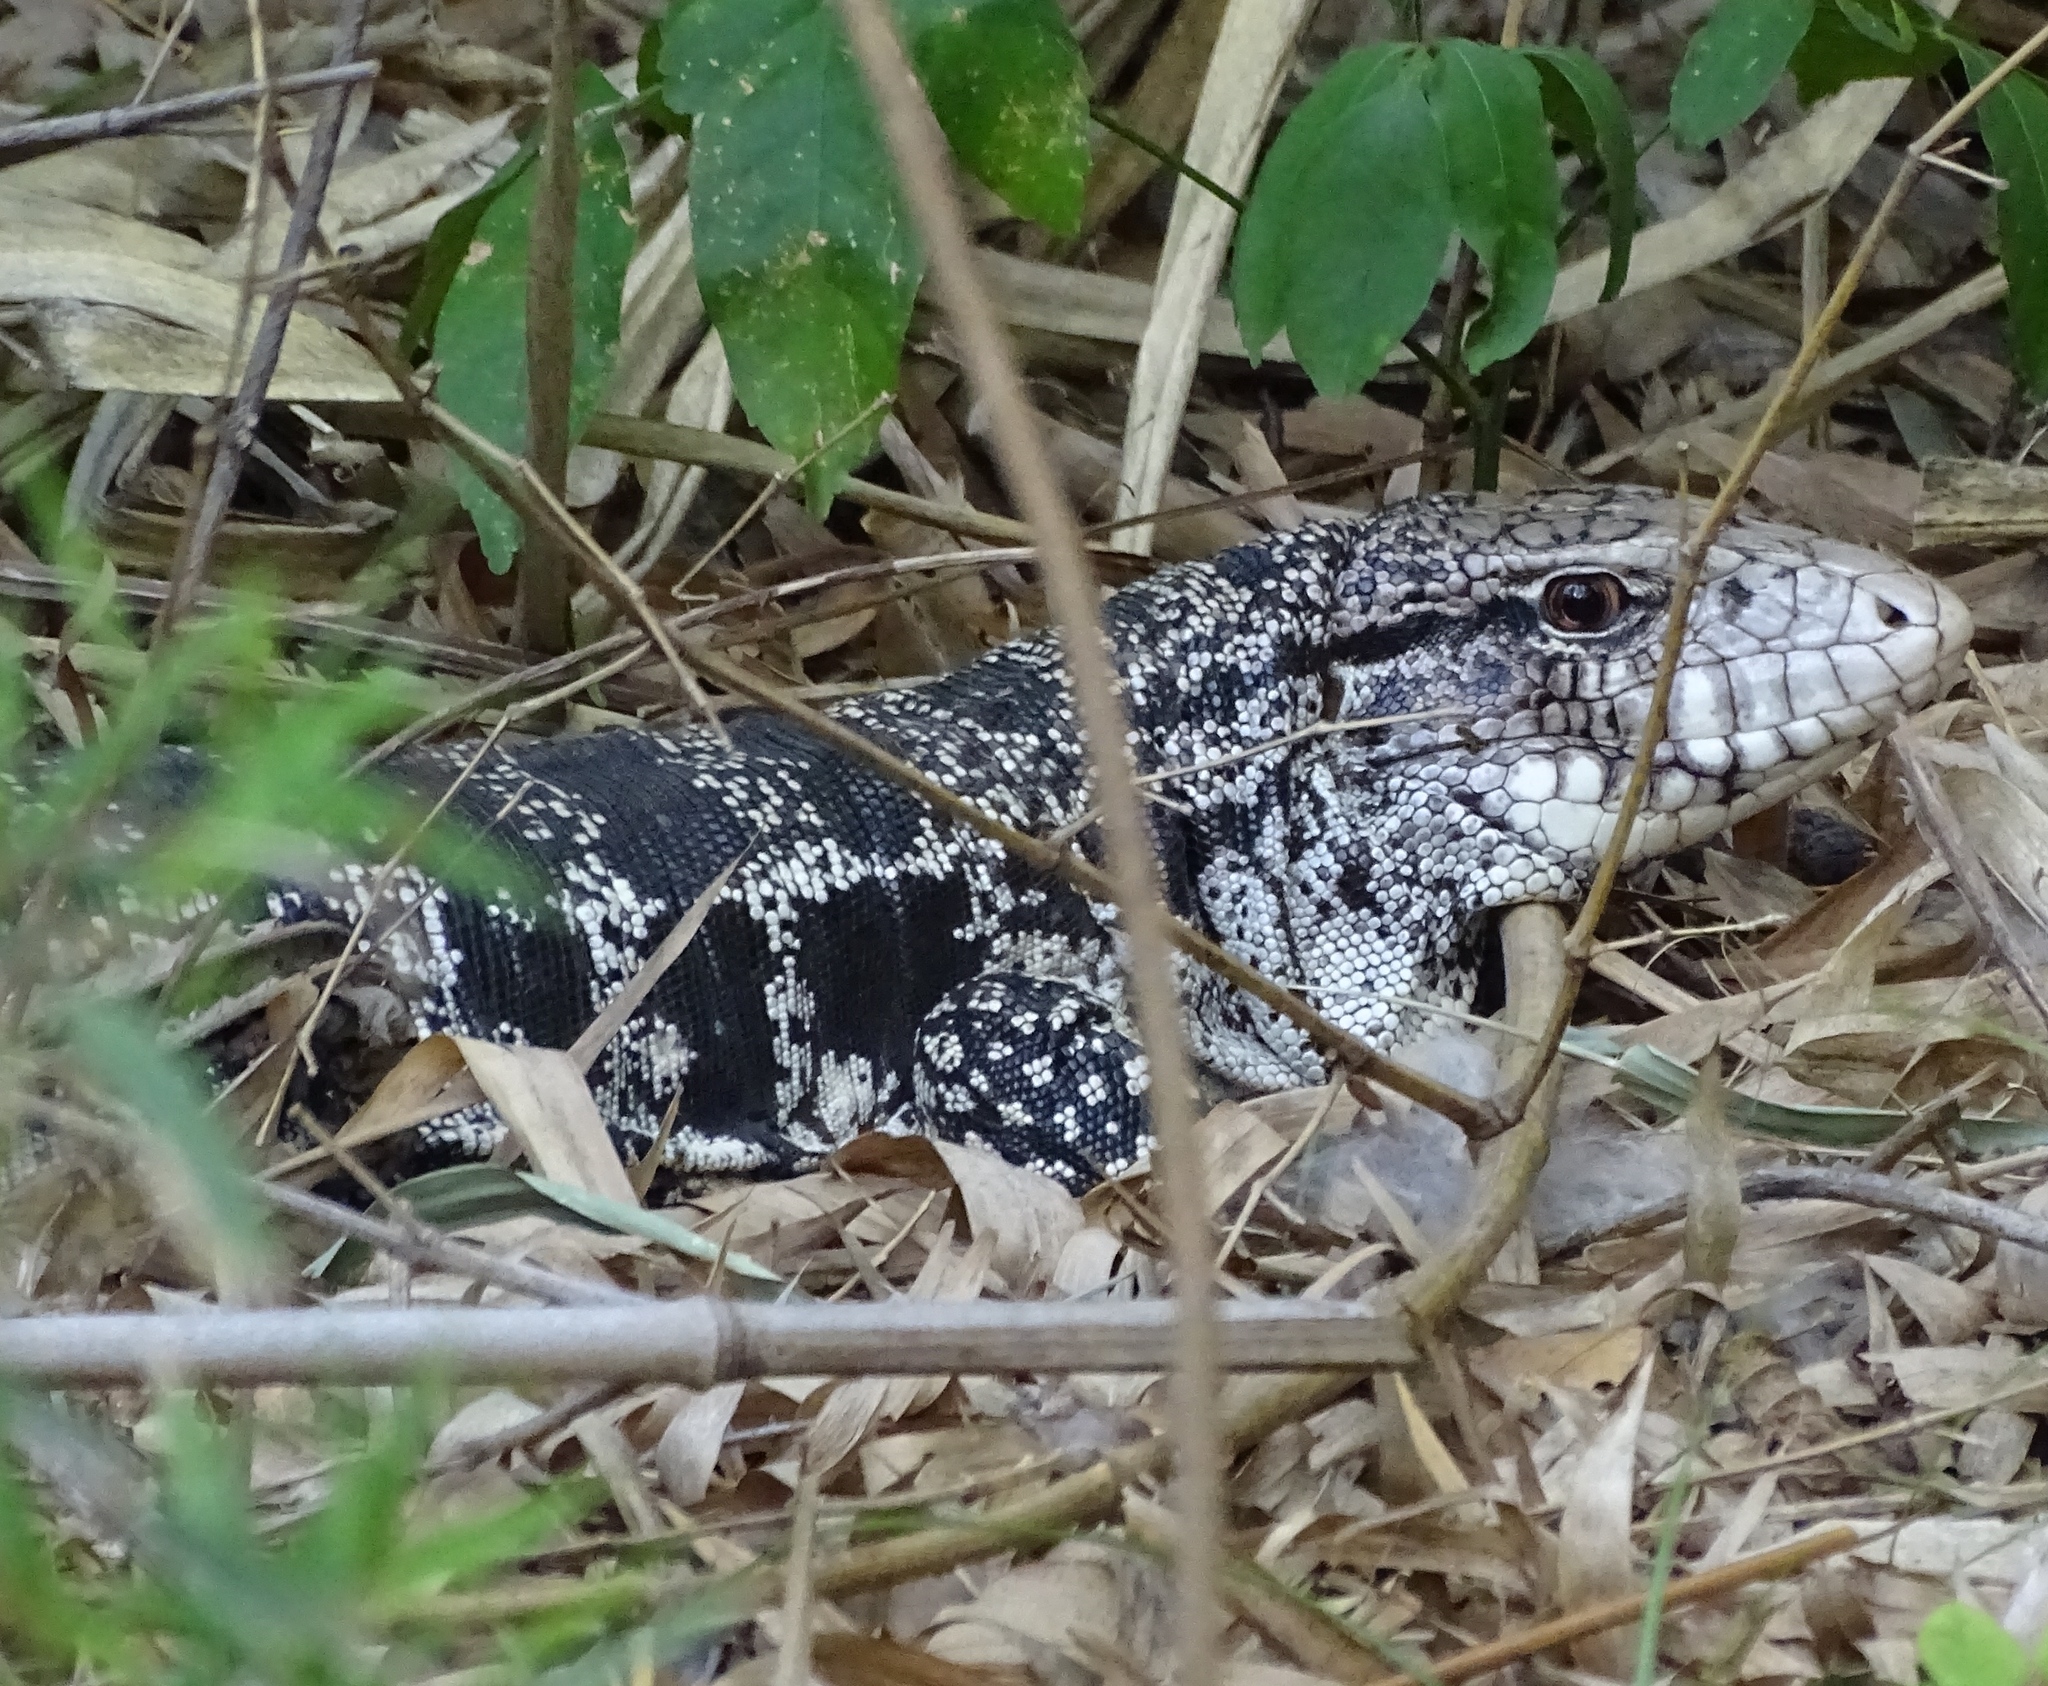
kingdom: Animalia
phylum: Chordata
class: Squamata
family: Teiidae
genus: Salvator
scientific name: Salvator merianae
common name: Argentine black and white tegu
